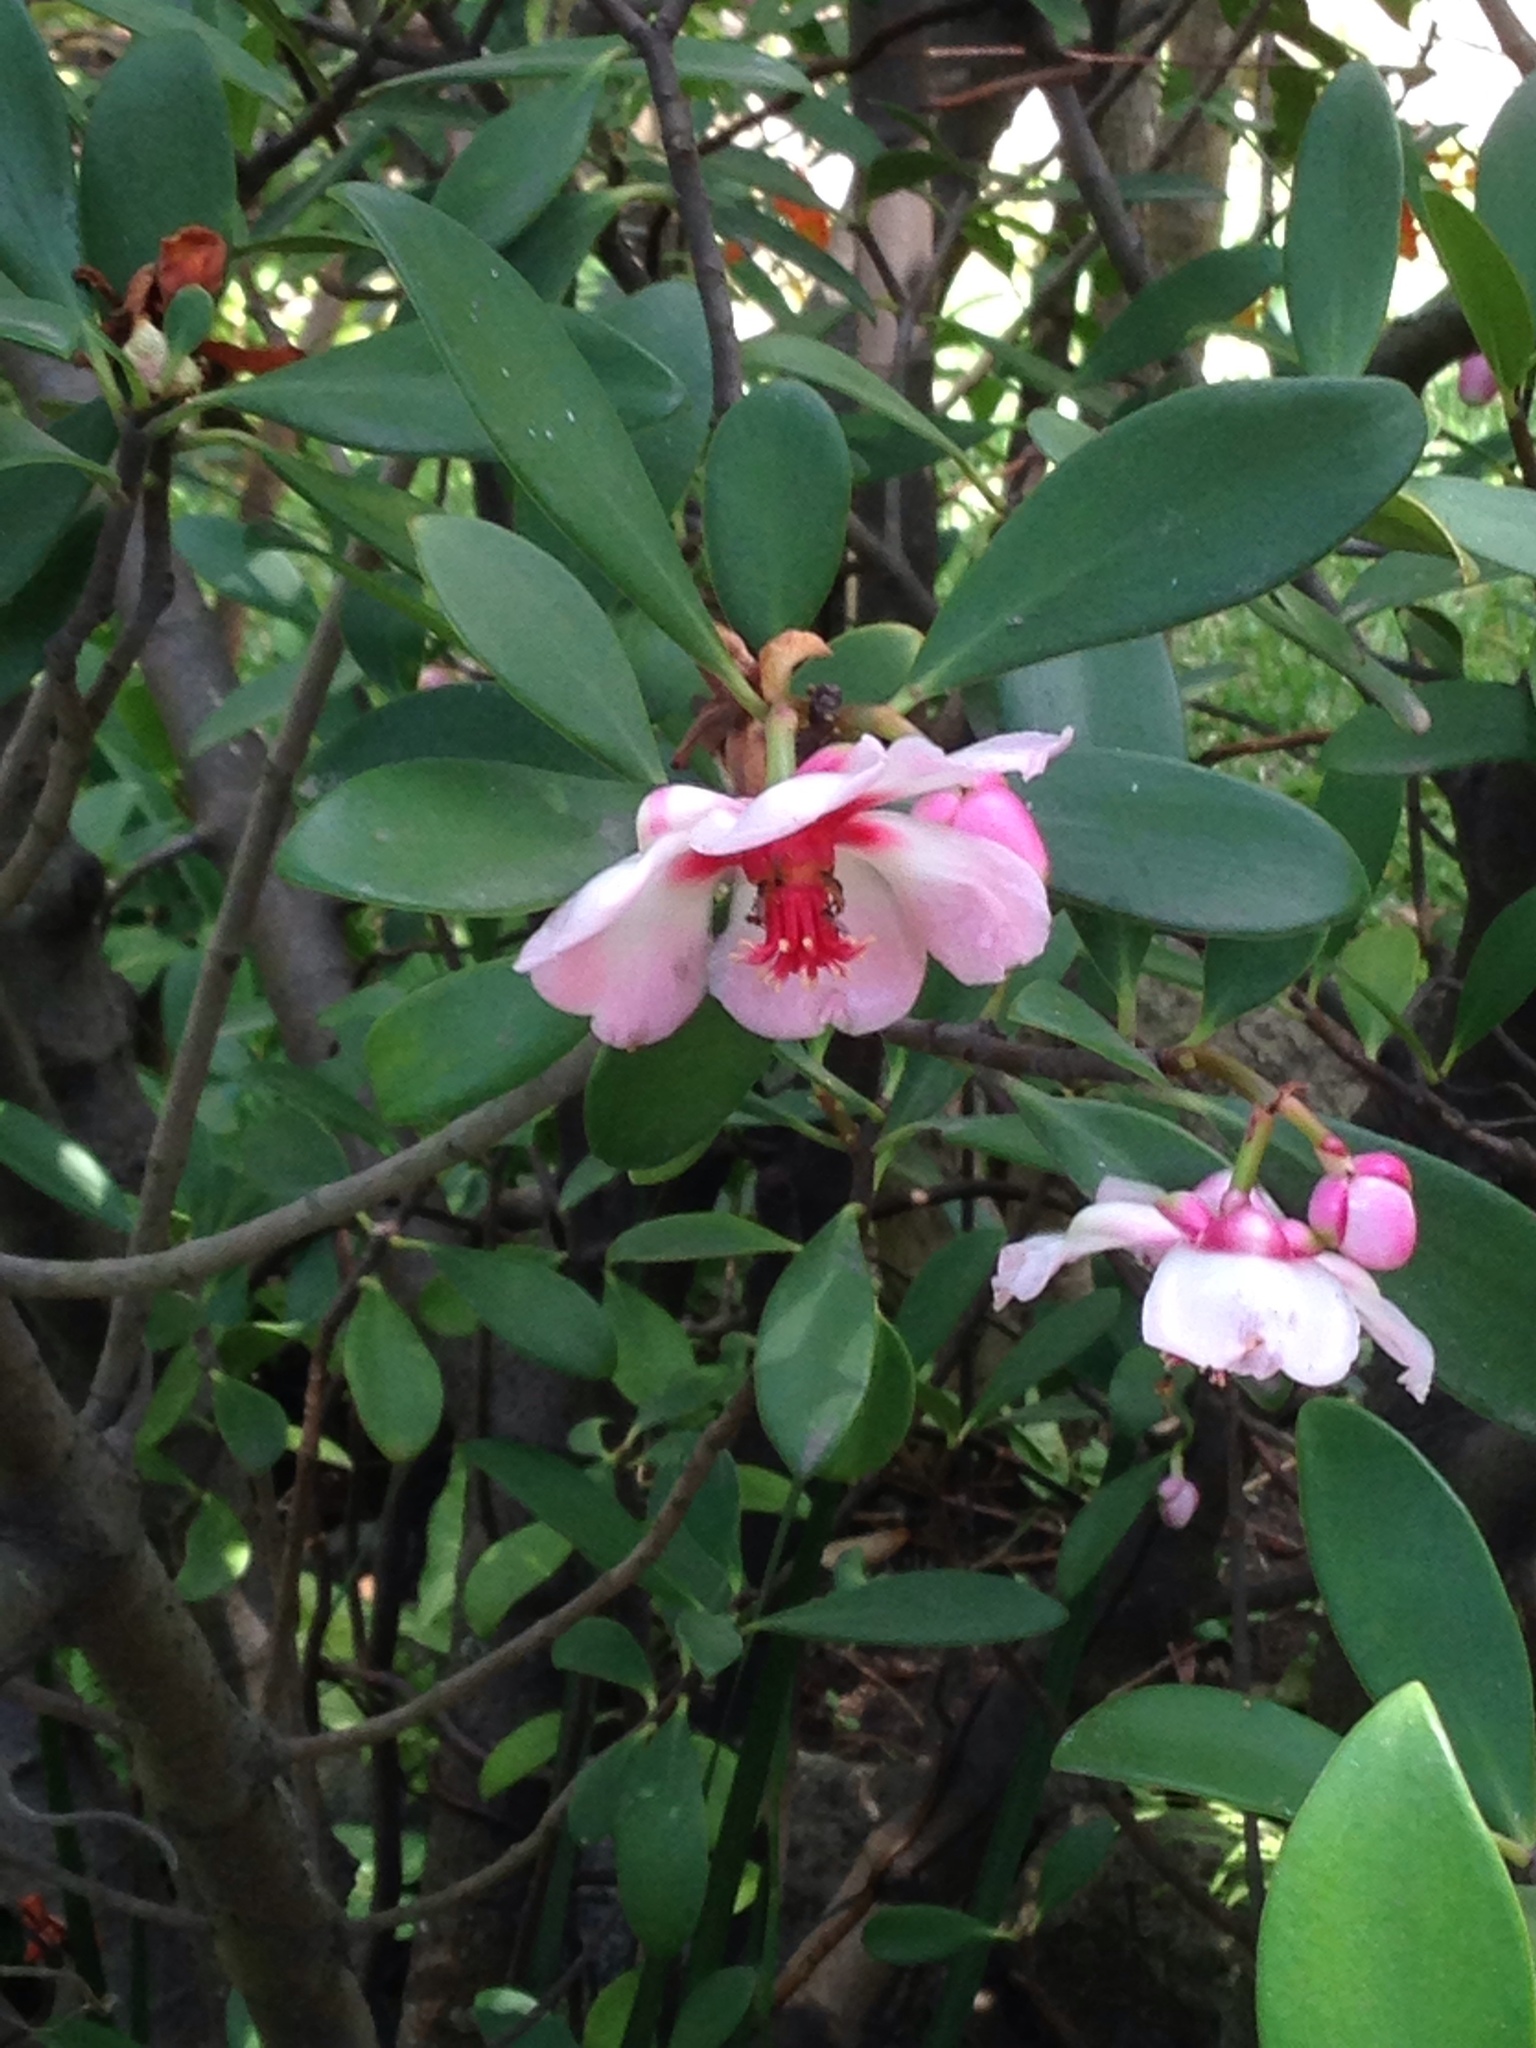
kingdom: Plantae
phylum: Tracheophyta
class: Magnoliopsida
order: Malpighiales
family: Clusiaceae
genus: Clusia
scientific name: Clusia orthoneura
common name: Porcelain-flower
